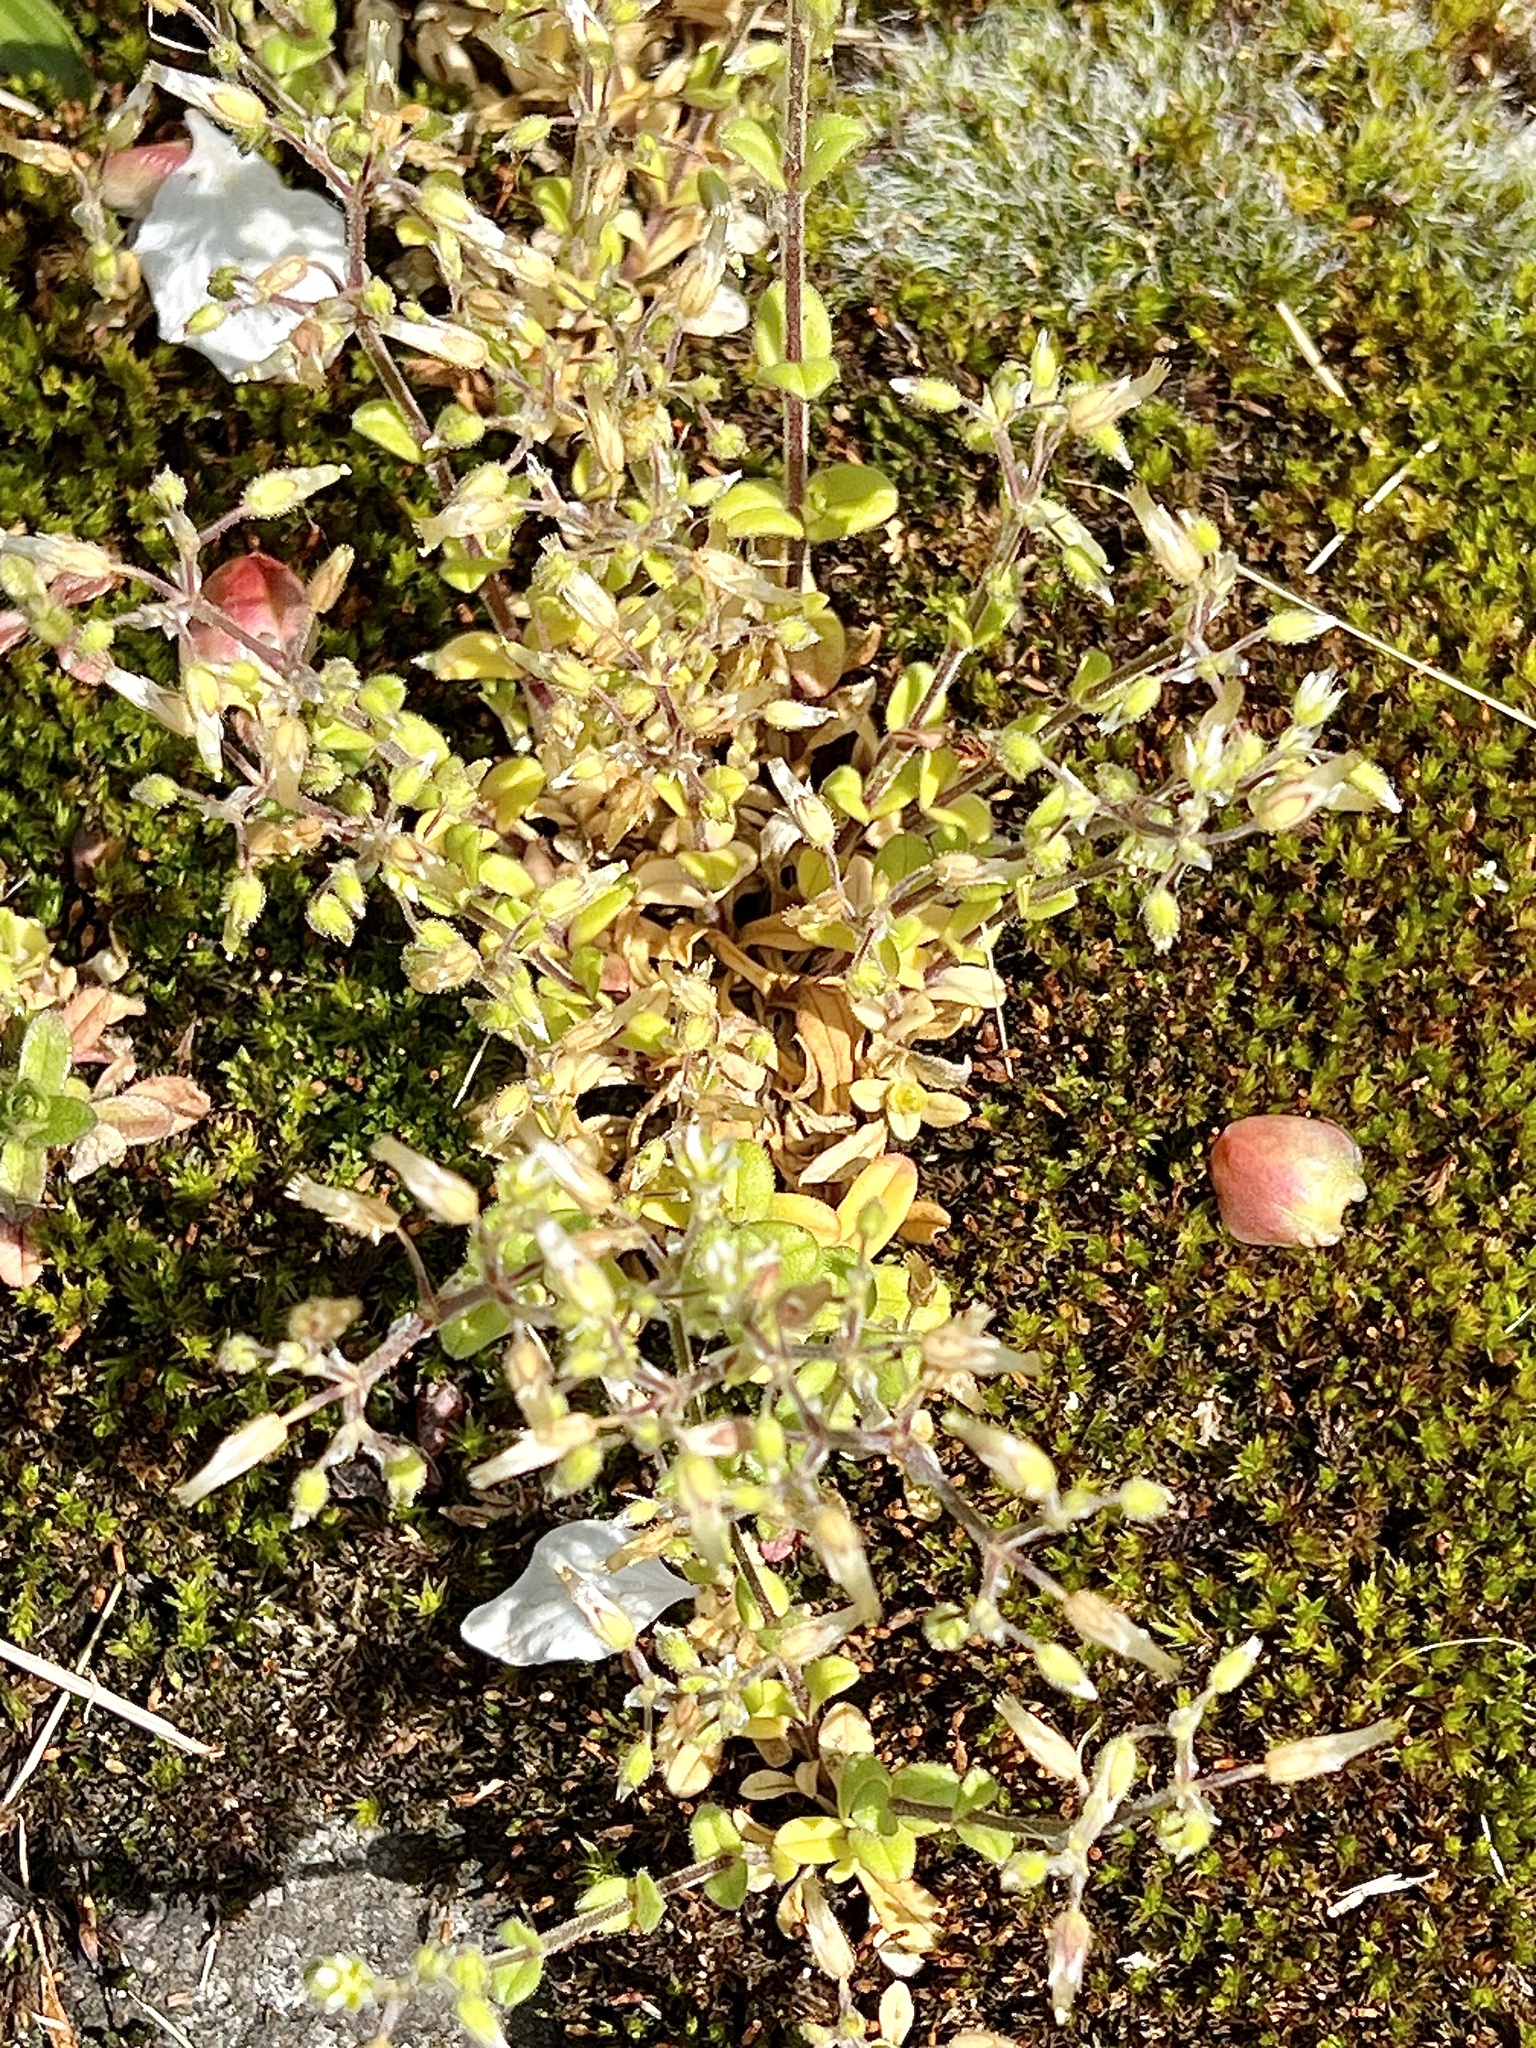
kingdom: Plantae
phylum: Tracheophyta
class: Magnoliopsida
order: Caryophyllales
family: Caryophyllaceae
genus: Cerastium
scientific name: Cerastium semidecandrum
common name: Little mouse-ear
